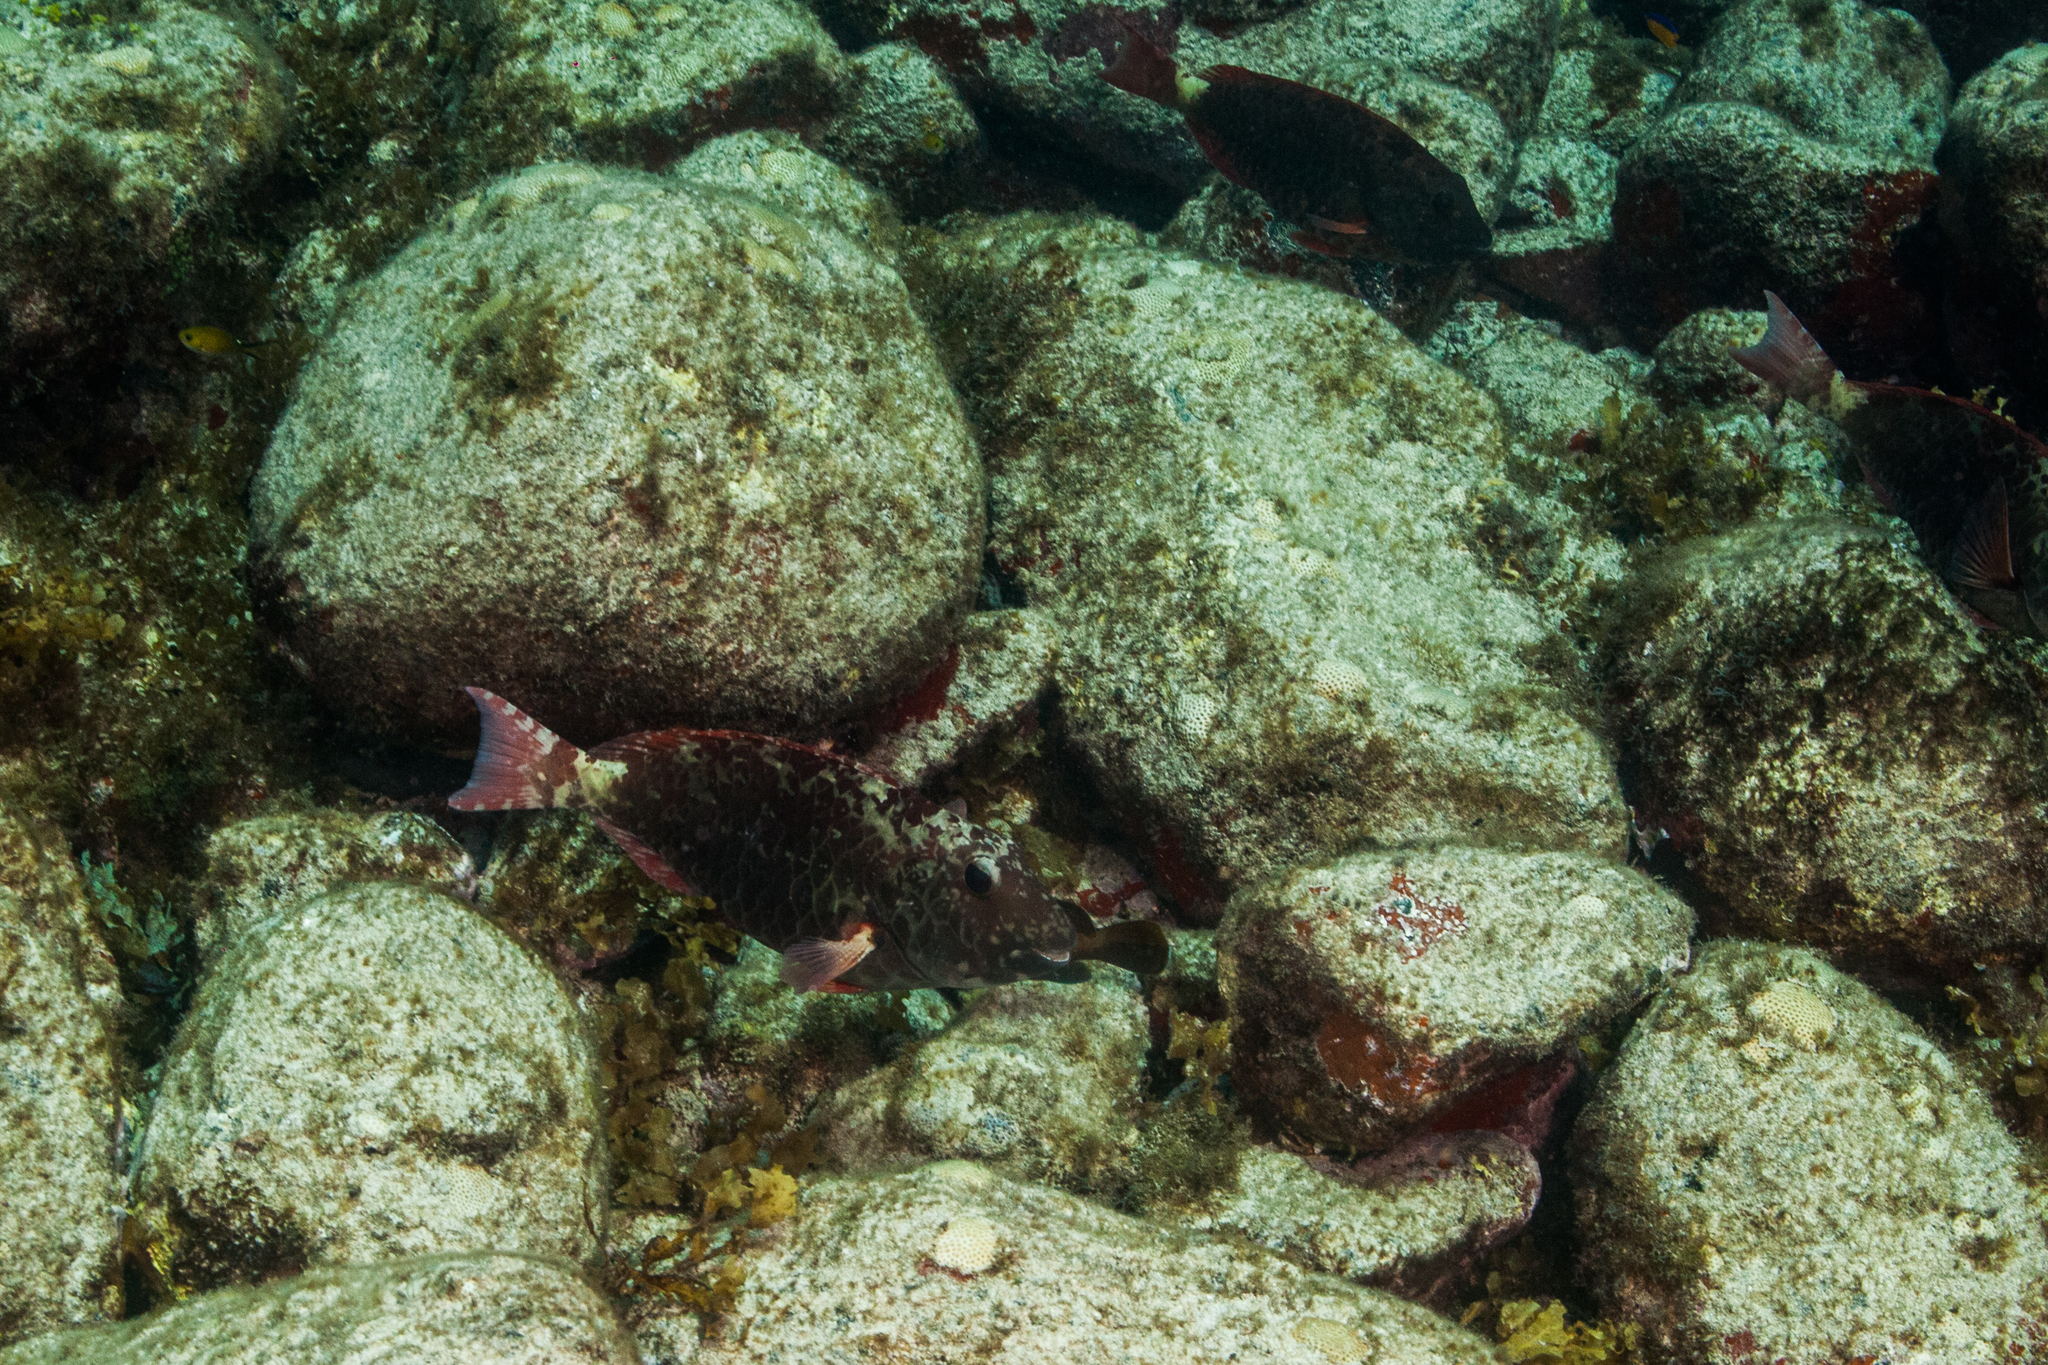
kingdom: Animalia
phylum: Chordata
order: Perciformes
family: Scaridae
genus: Sparisoma
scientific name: Sparisoma frondosum
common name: Agassiz's parrotfish
